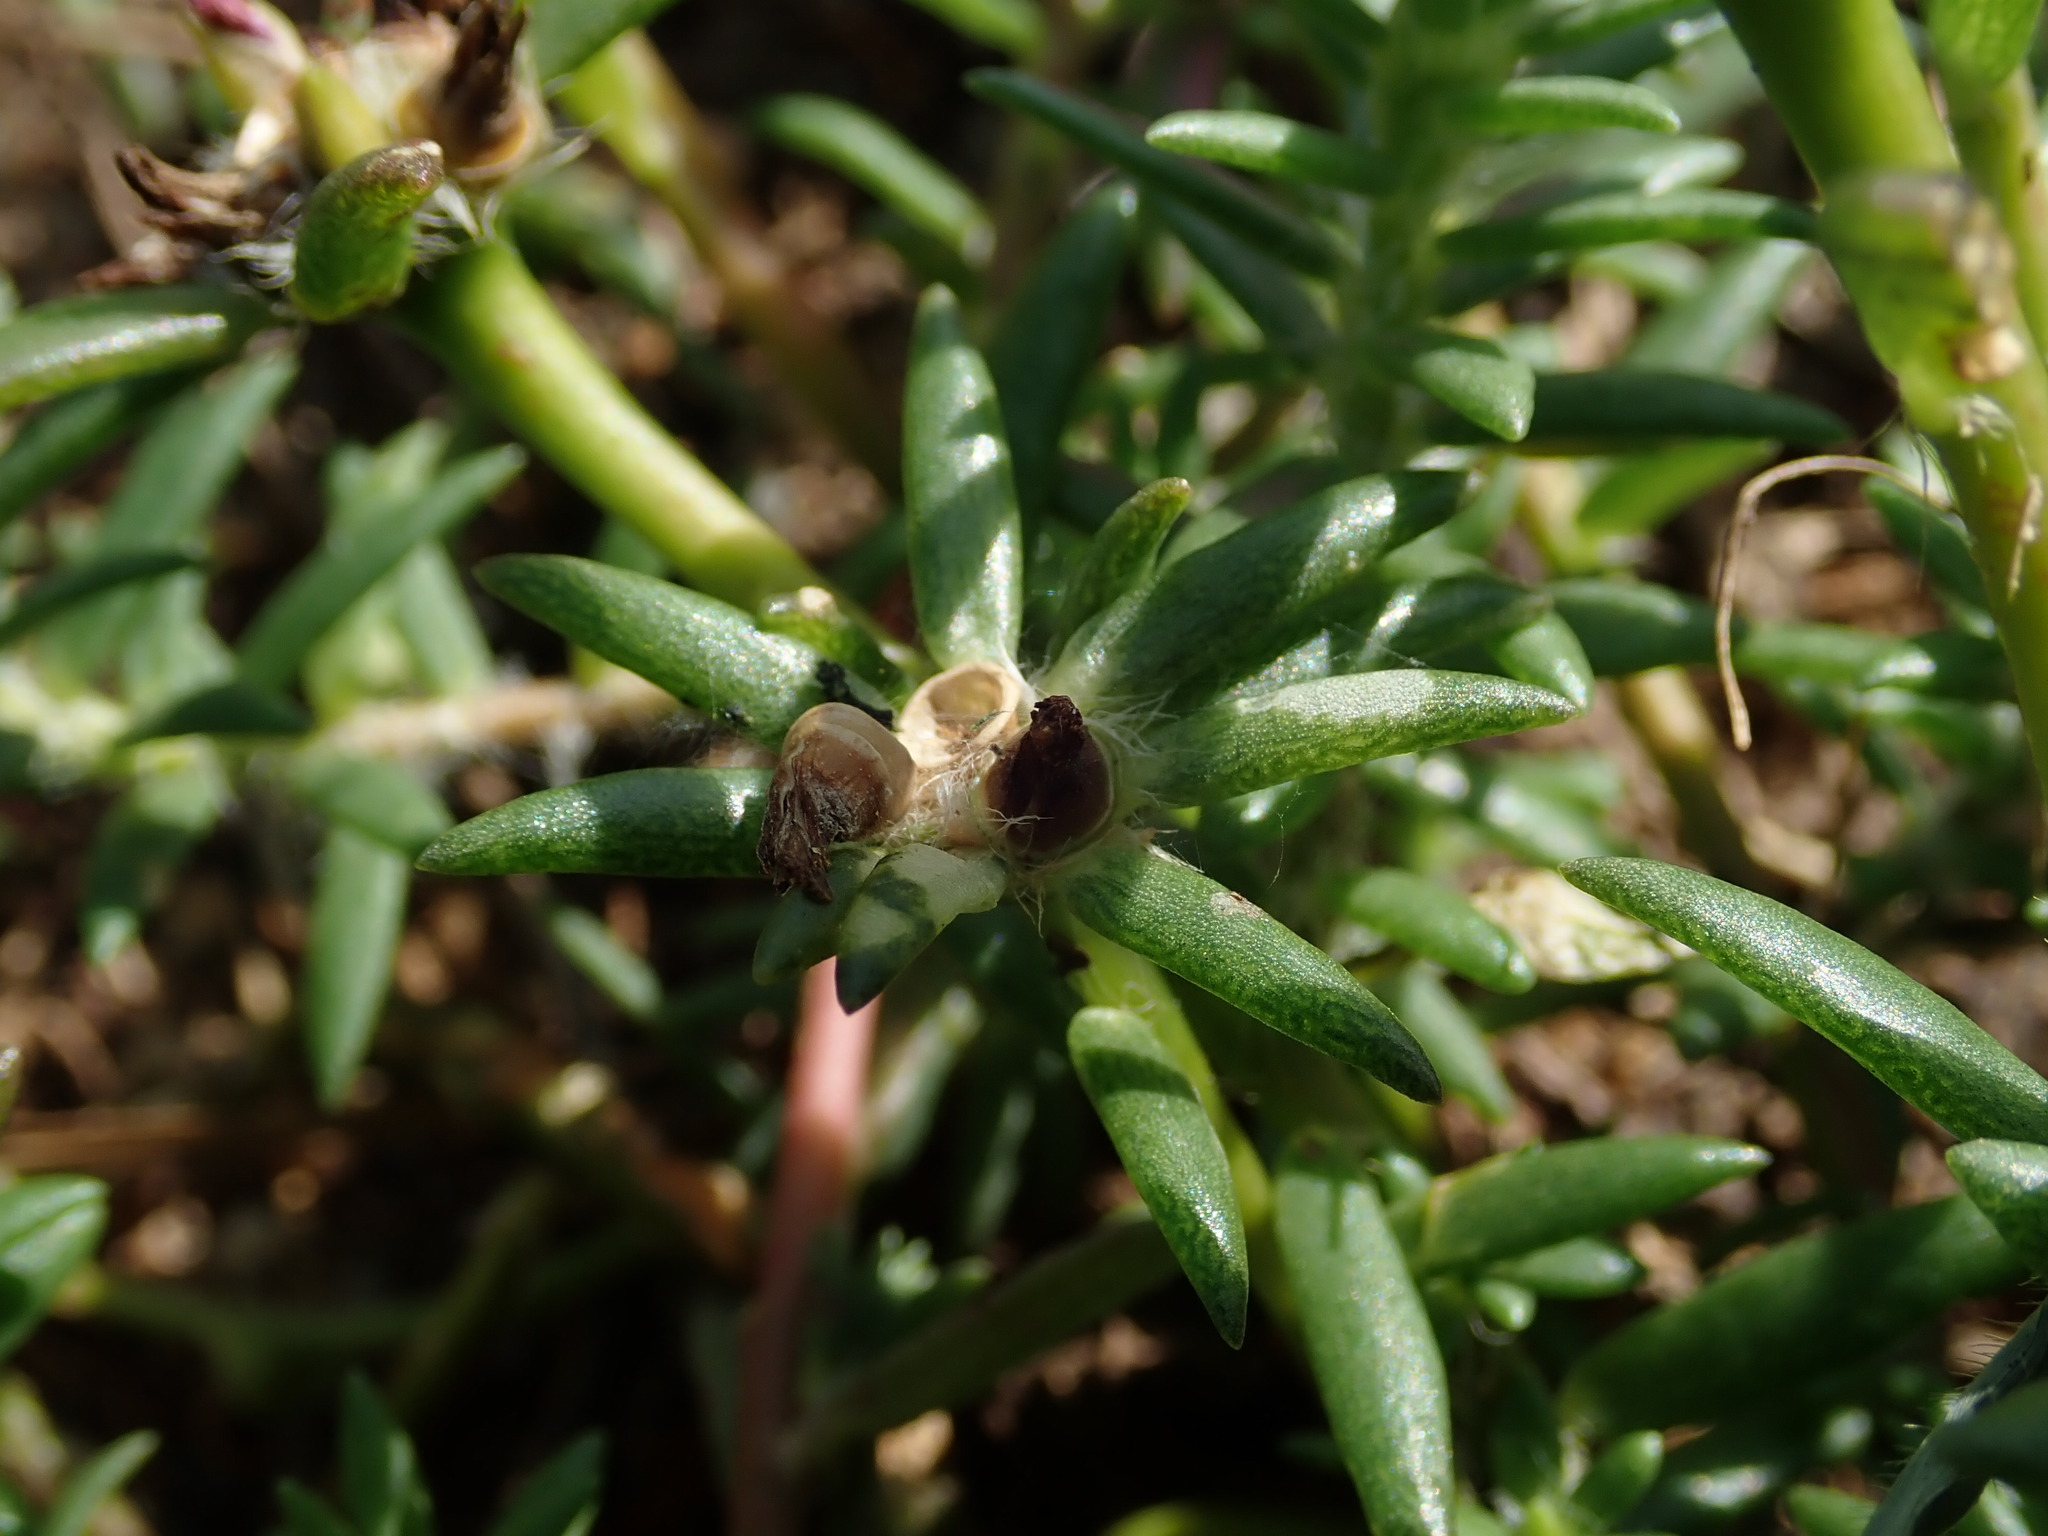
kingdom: Plantae
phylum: Tracheophyta
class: Magnoliopsida
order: Caryophyllales
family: Portulacaceae
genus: Portulaca
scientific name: Portulaca pilosa
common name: Kiss me quick
